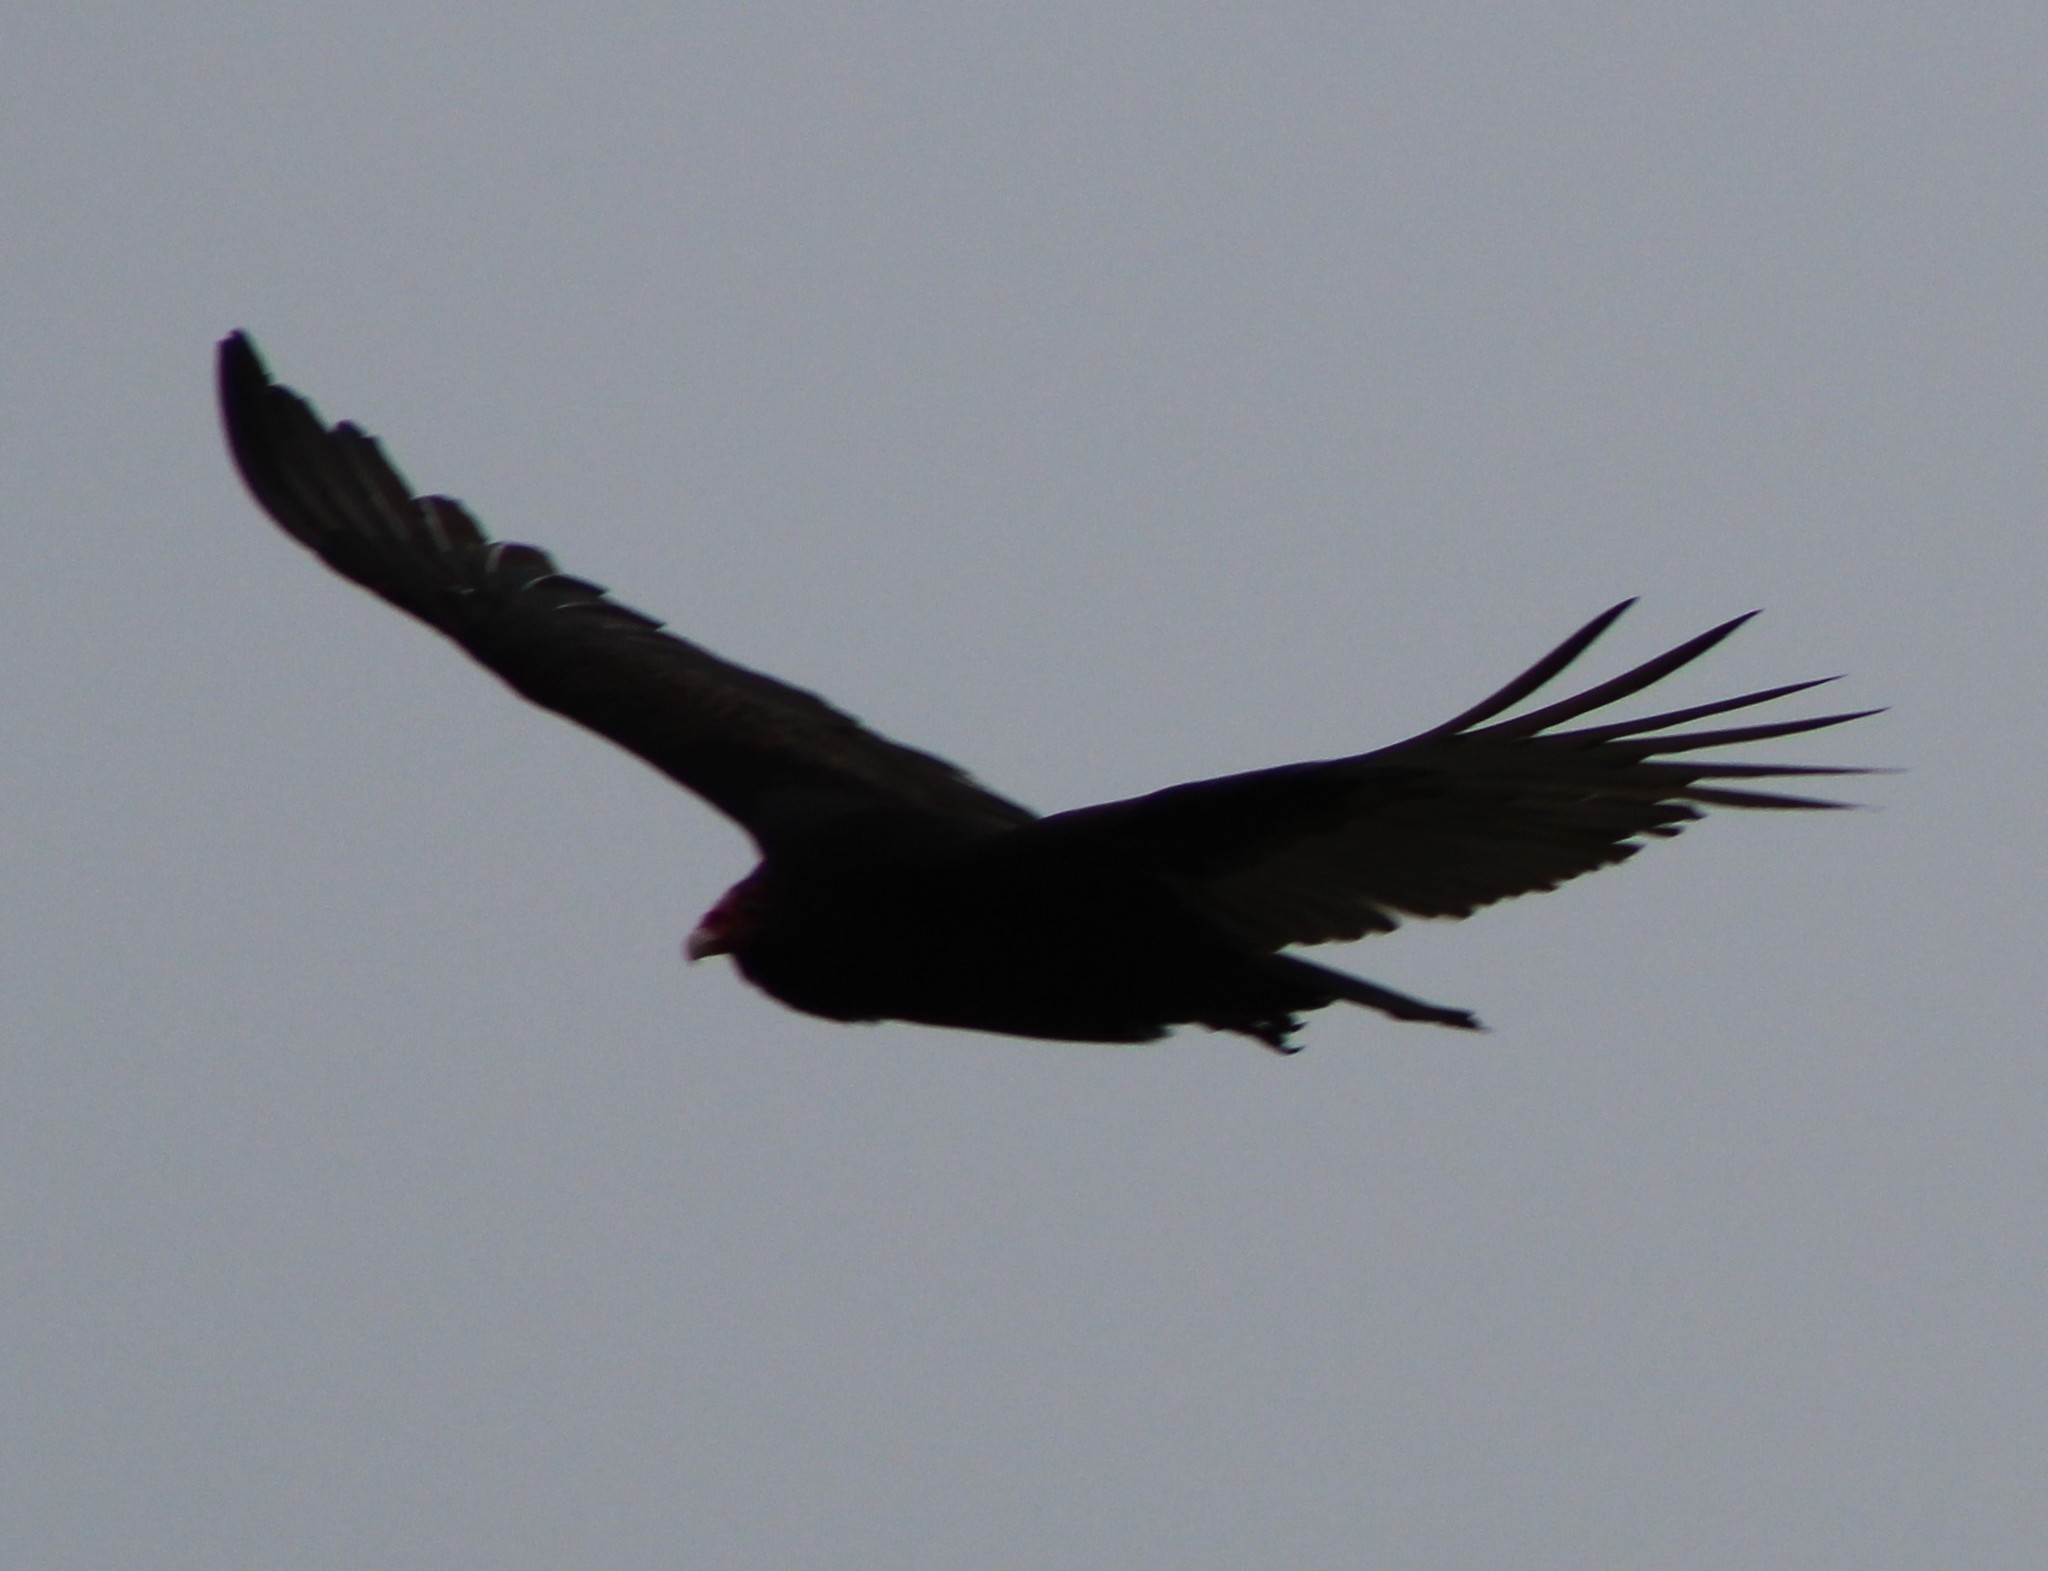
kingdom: Animalia
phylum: Chordata
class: Aves
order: Accipitriformes
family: Cathartidae
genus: Cathartes
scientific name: Cathartes aura
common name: Turkey vulture
